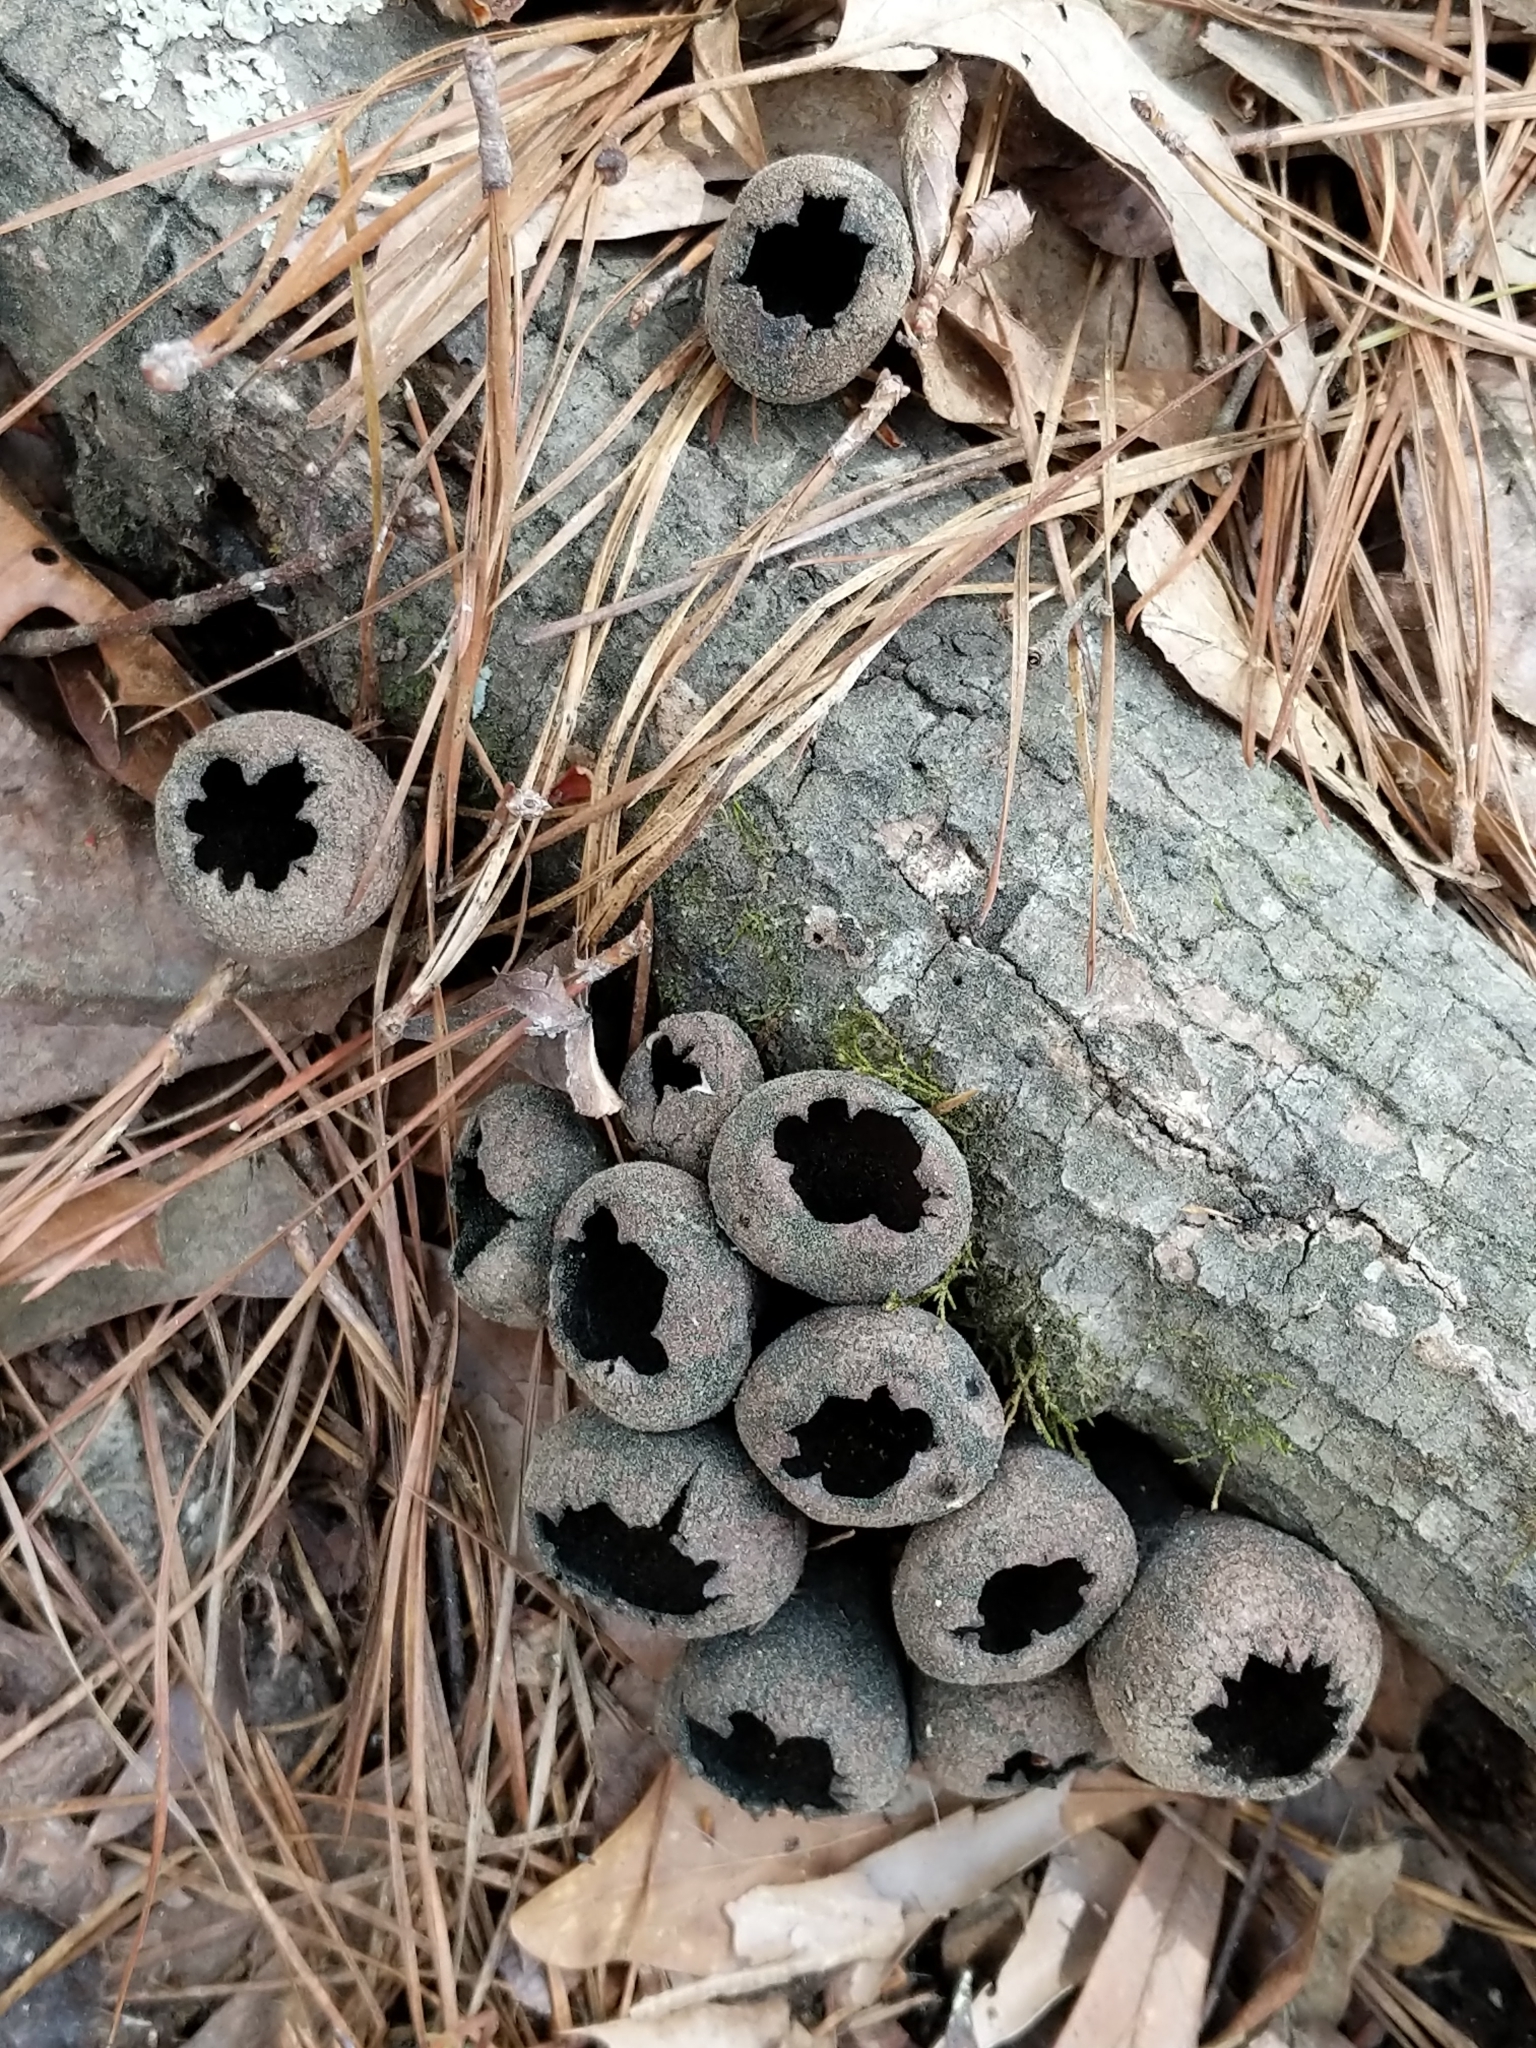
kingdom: Fungi
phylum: Ascomycota
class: Pezizomycetes
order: Pezizales
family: Sarcosomataceae
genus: Urnula
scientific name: Urnula craterium
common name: Devil's urn
